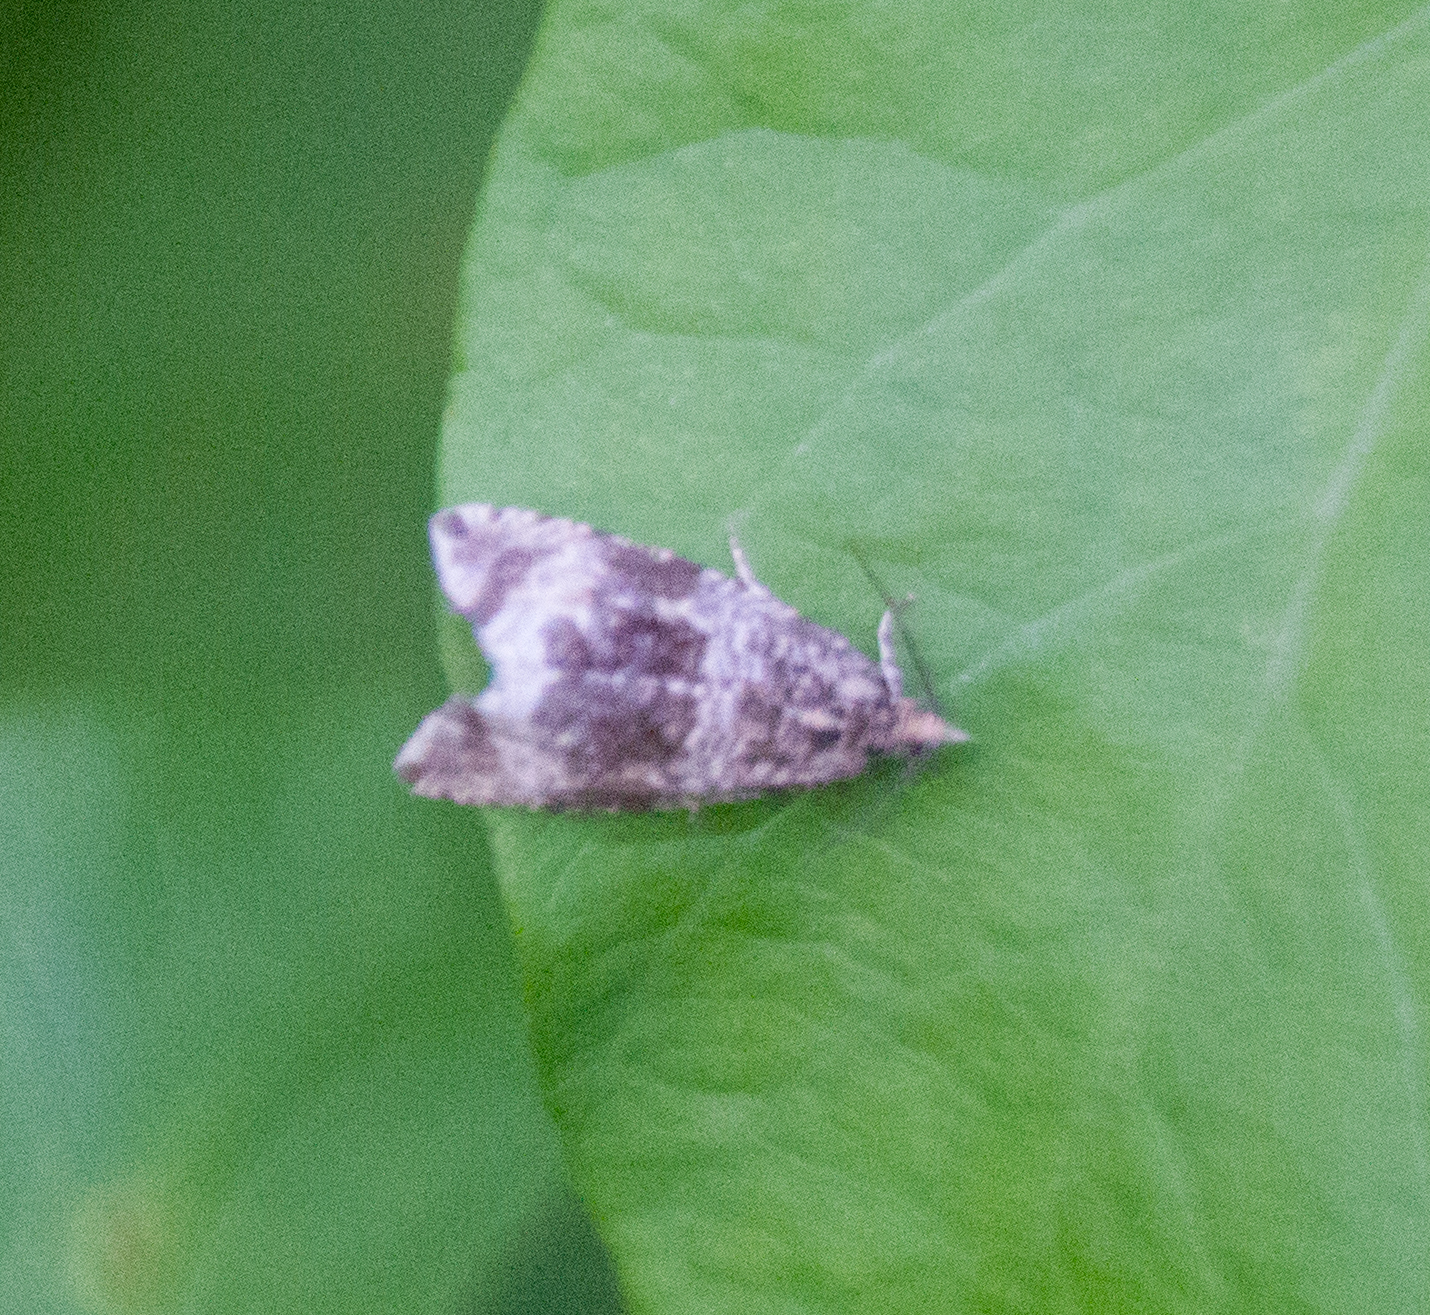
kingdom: Animalia
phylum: Arthropoda
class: Insecta
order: Lepidoptera
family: Tortricidae
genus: Syricoris
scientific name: Syricoris lacunana
